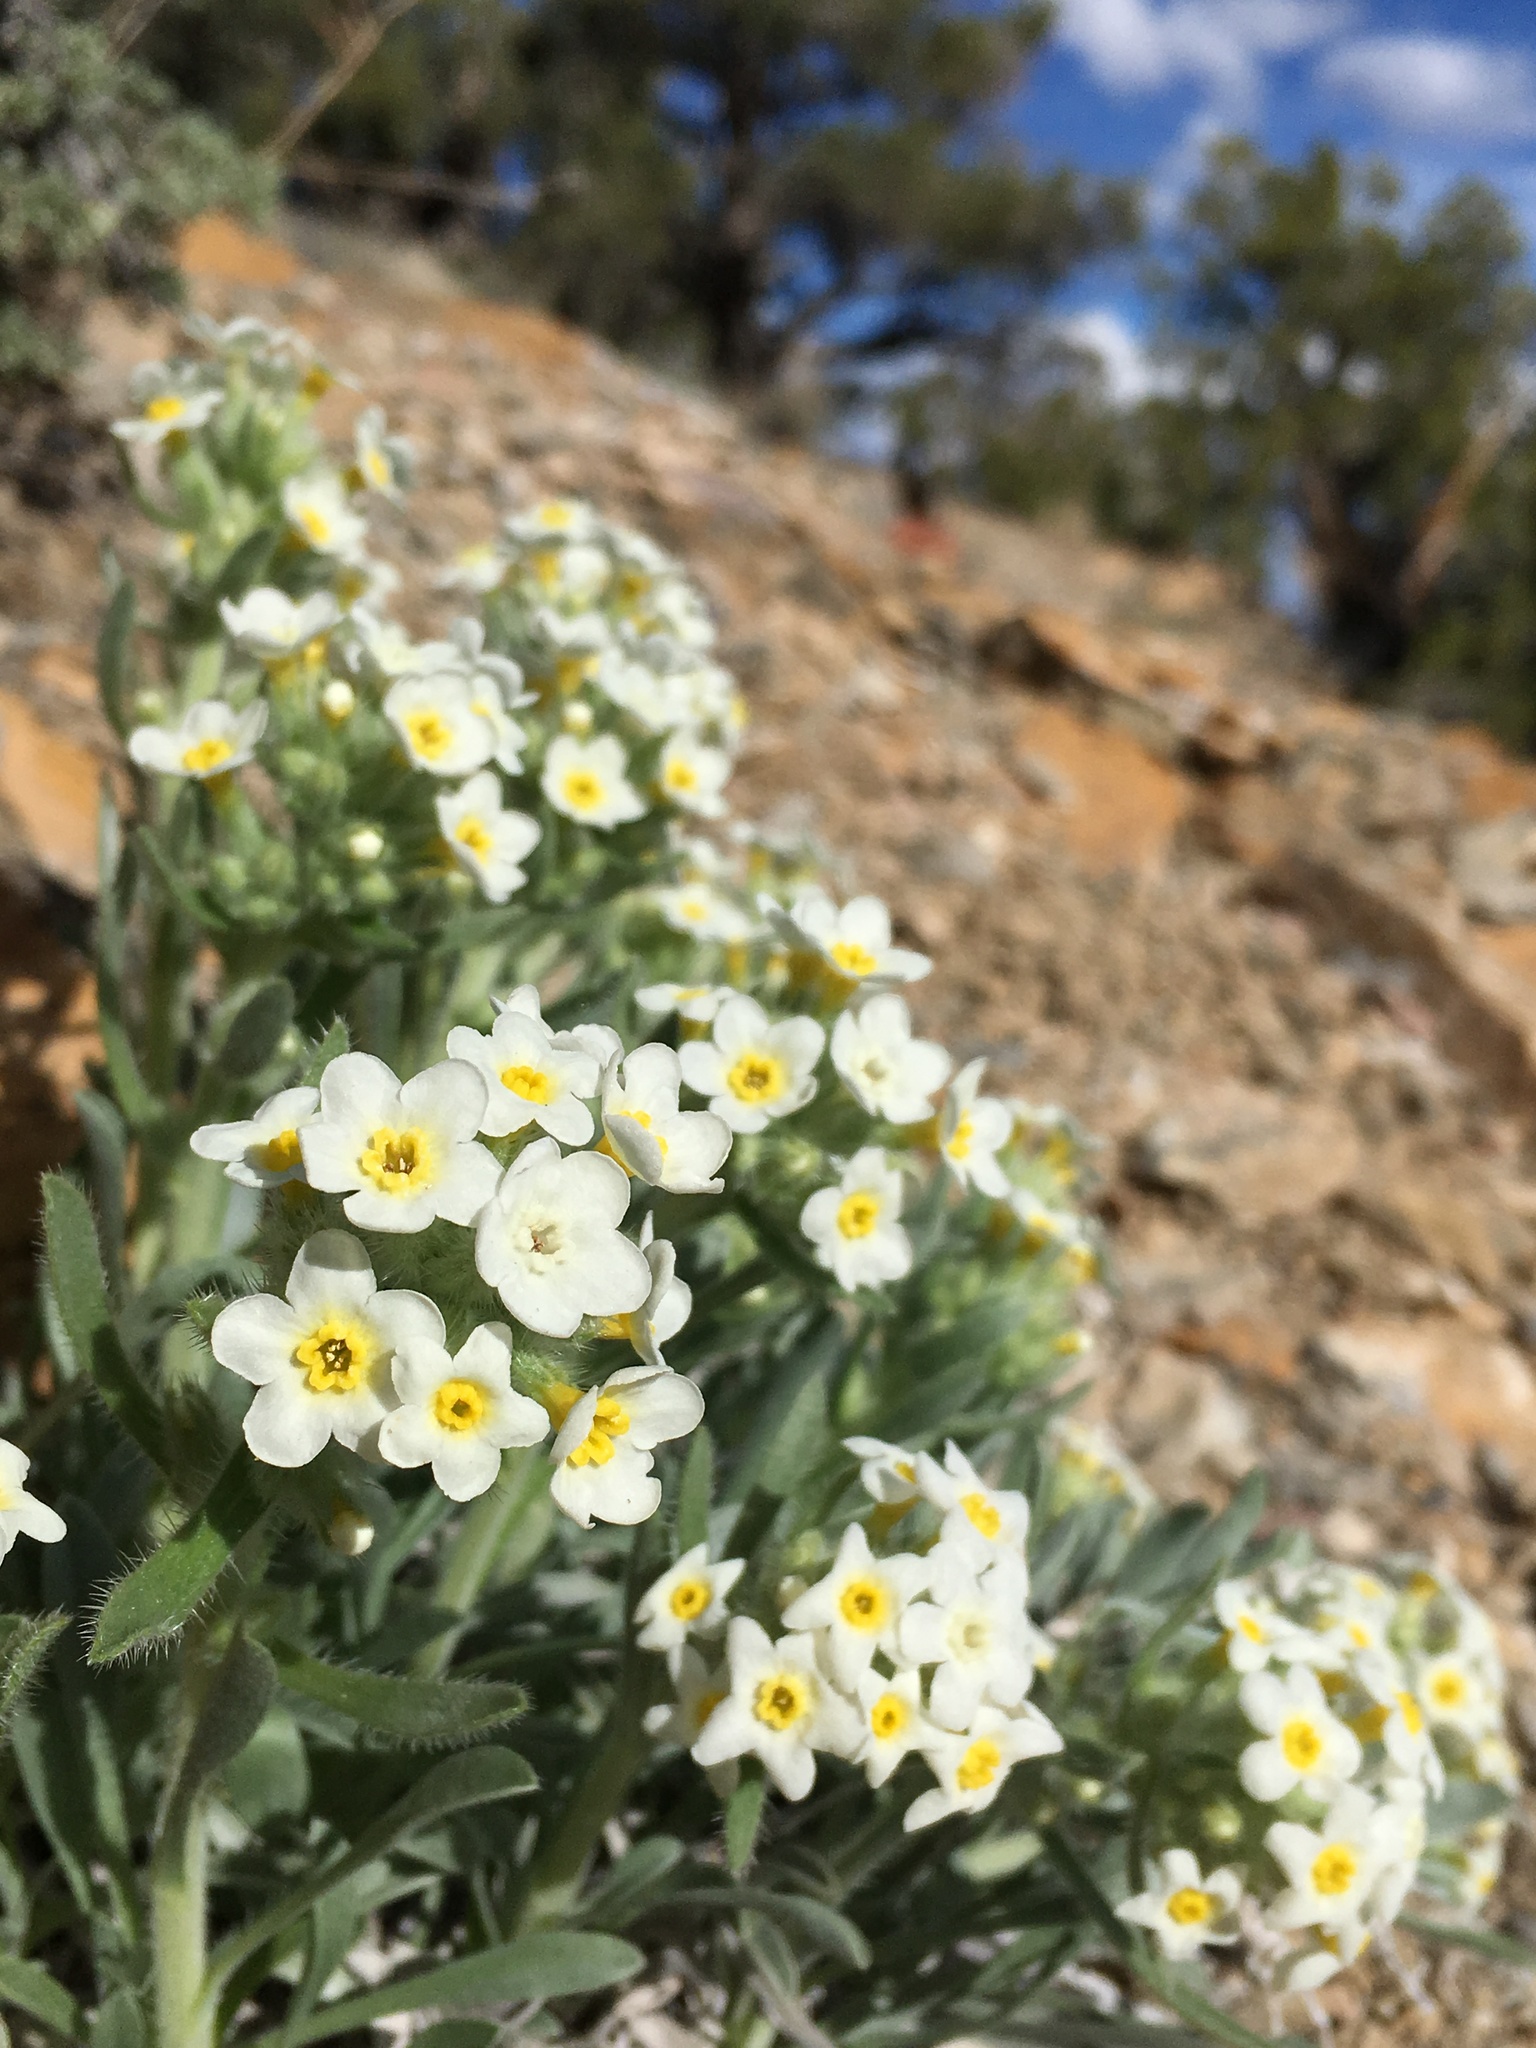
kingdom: Plantae
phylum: Tracheophyta
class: Magnoliopsida
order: Boraginales
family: Boraginaceae
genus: Oreocarya
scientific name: Oreocarya flavoculata
